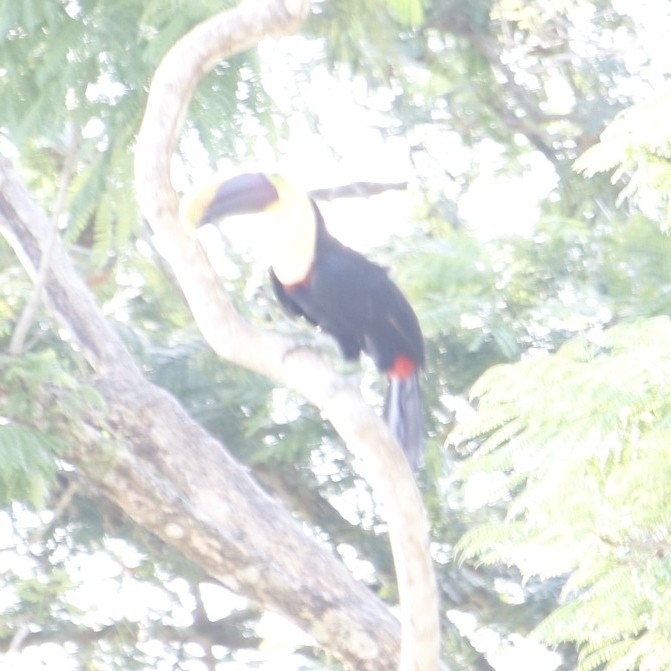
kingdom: Animalia
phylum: Chordata
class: Aves
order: Piciformes
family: Ramphastidae
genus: Ramphastos
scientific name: Ramphastos ambiguus
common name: Yellow-throated toucan
